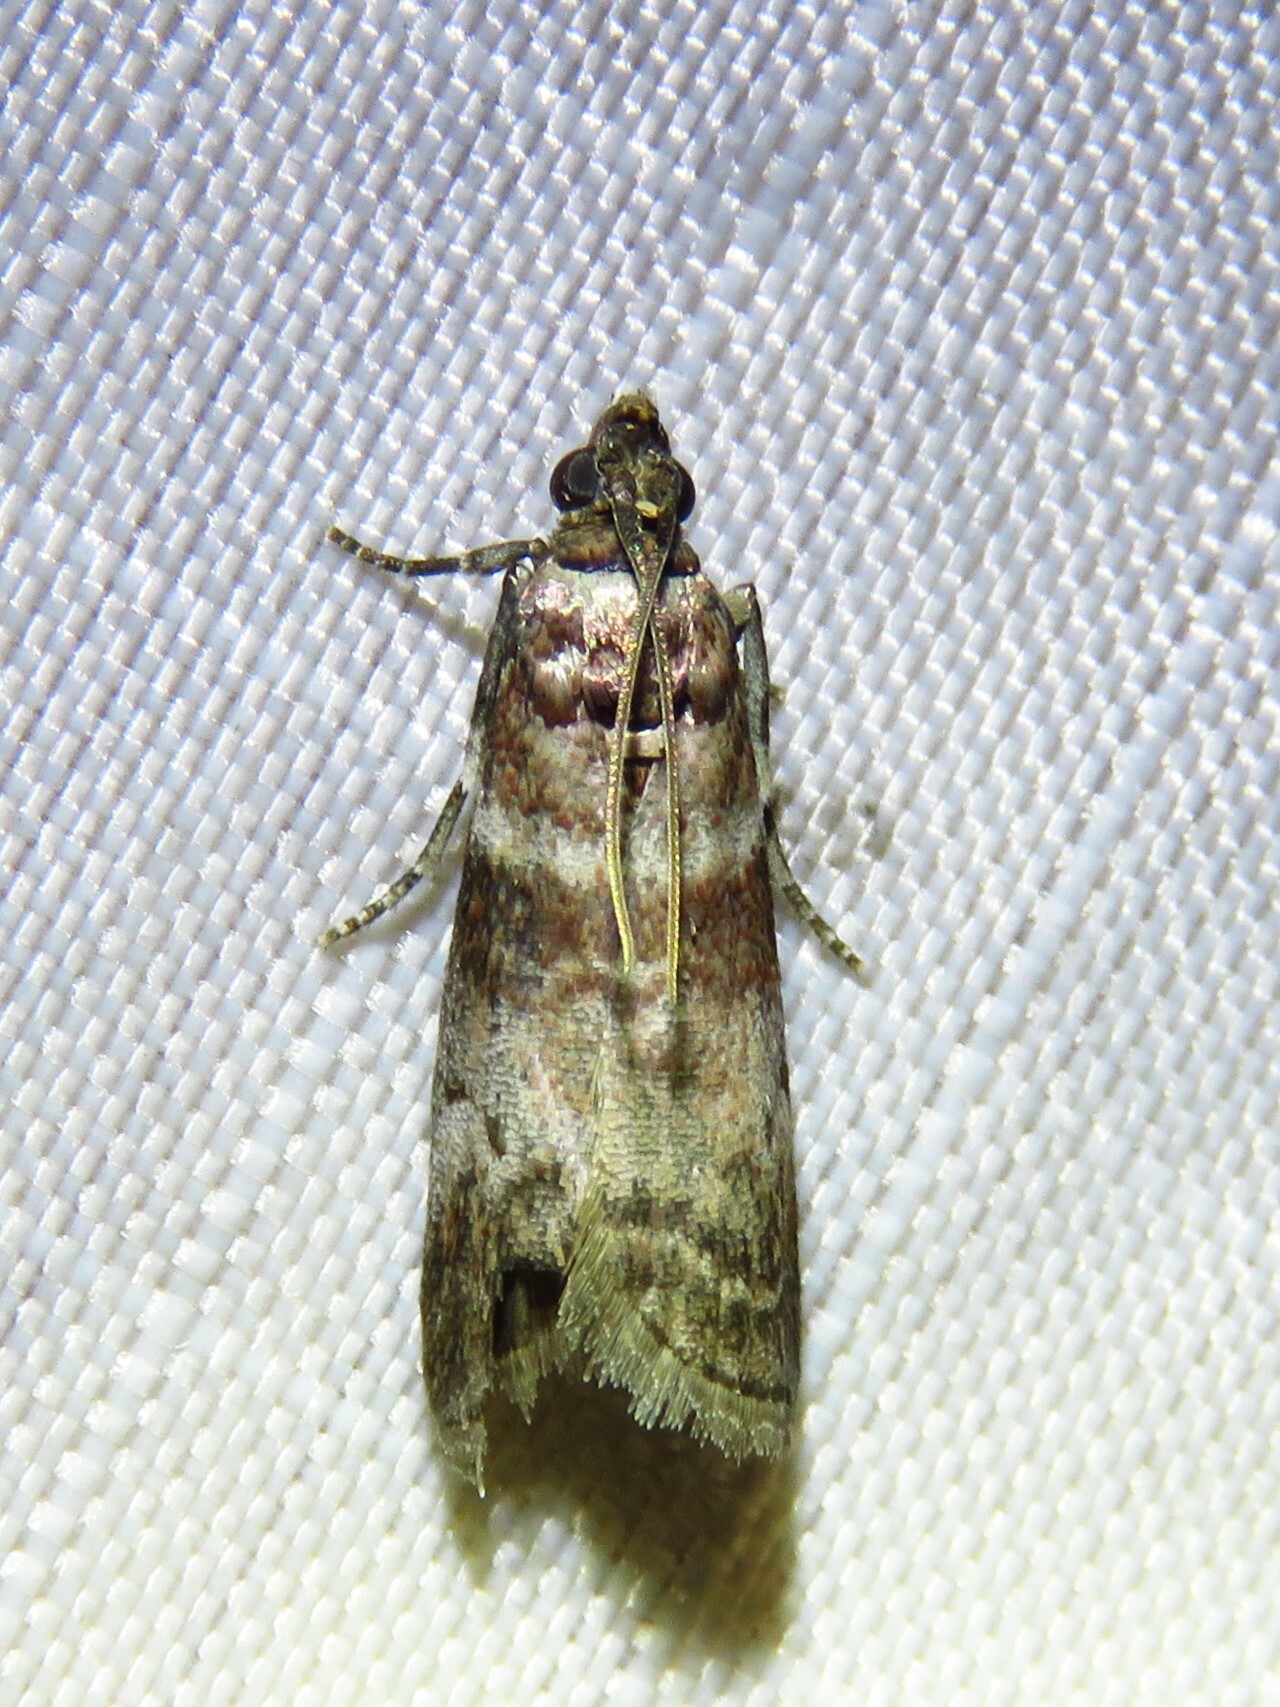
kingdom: Animalia
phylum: Arthropoda
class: Insecta
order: Lepidoptera
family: Pyralidae
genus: Sciota
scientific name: Sciota uvinella
